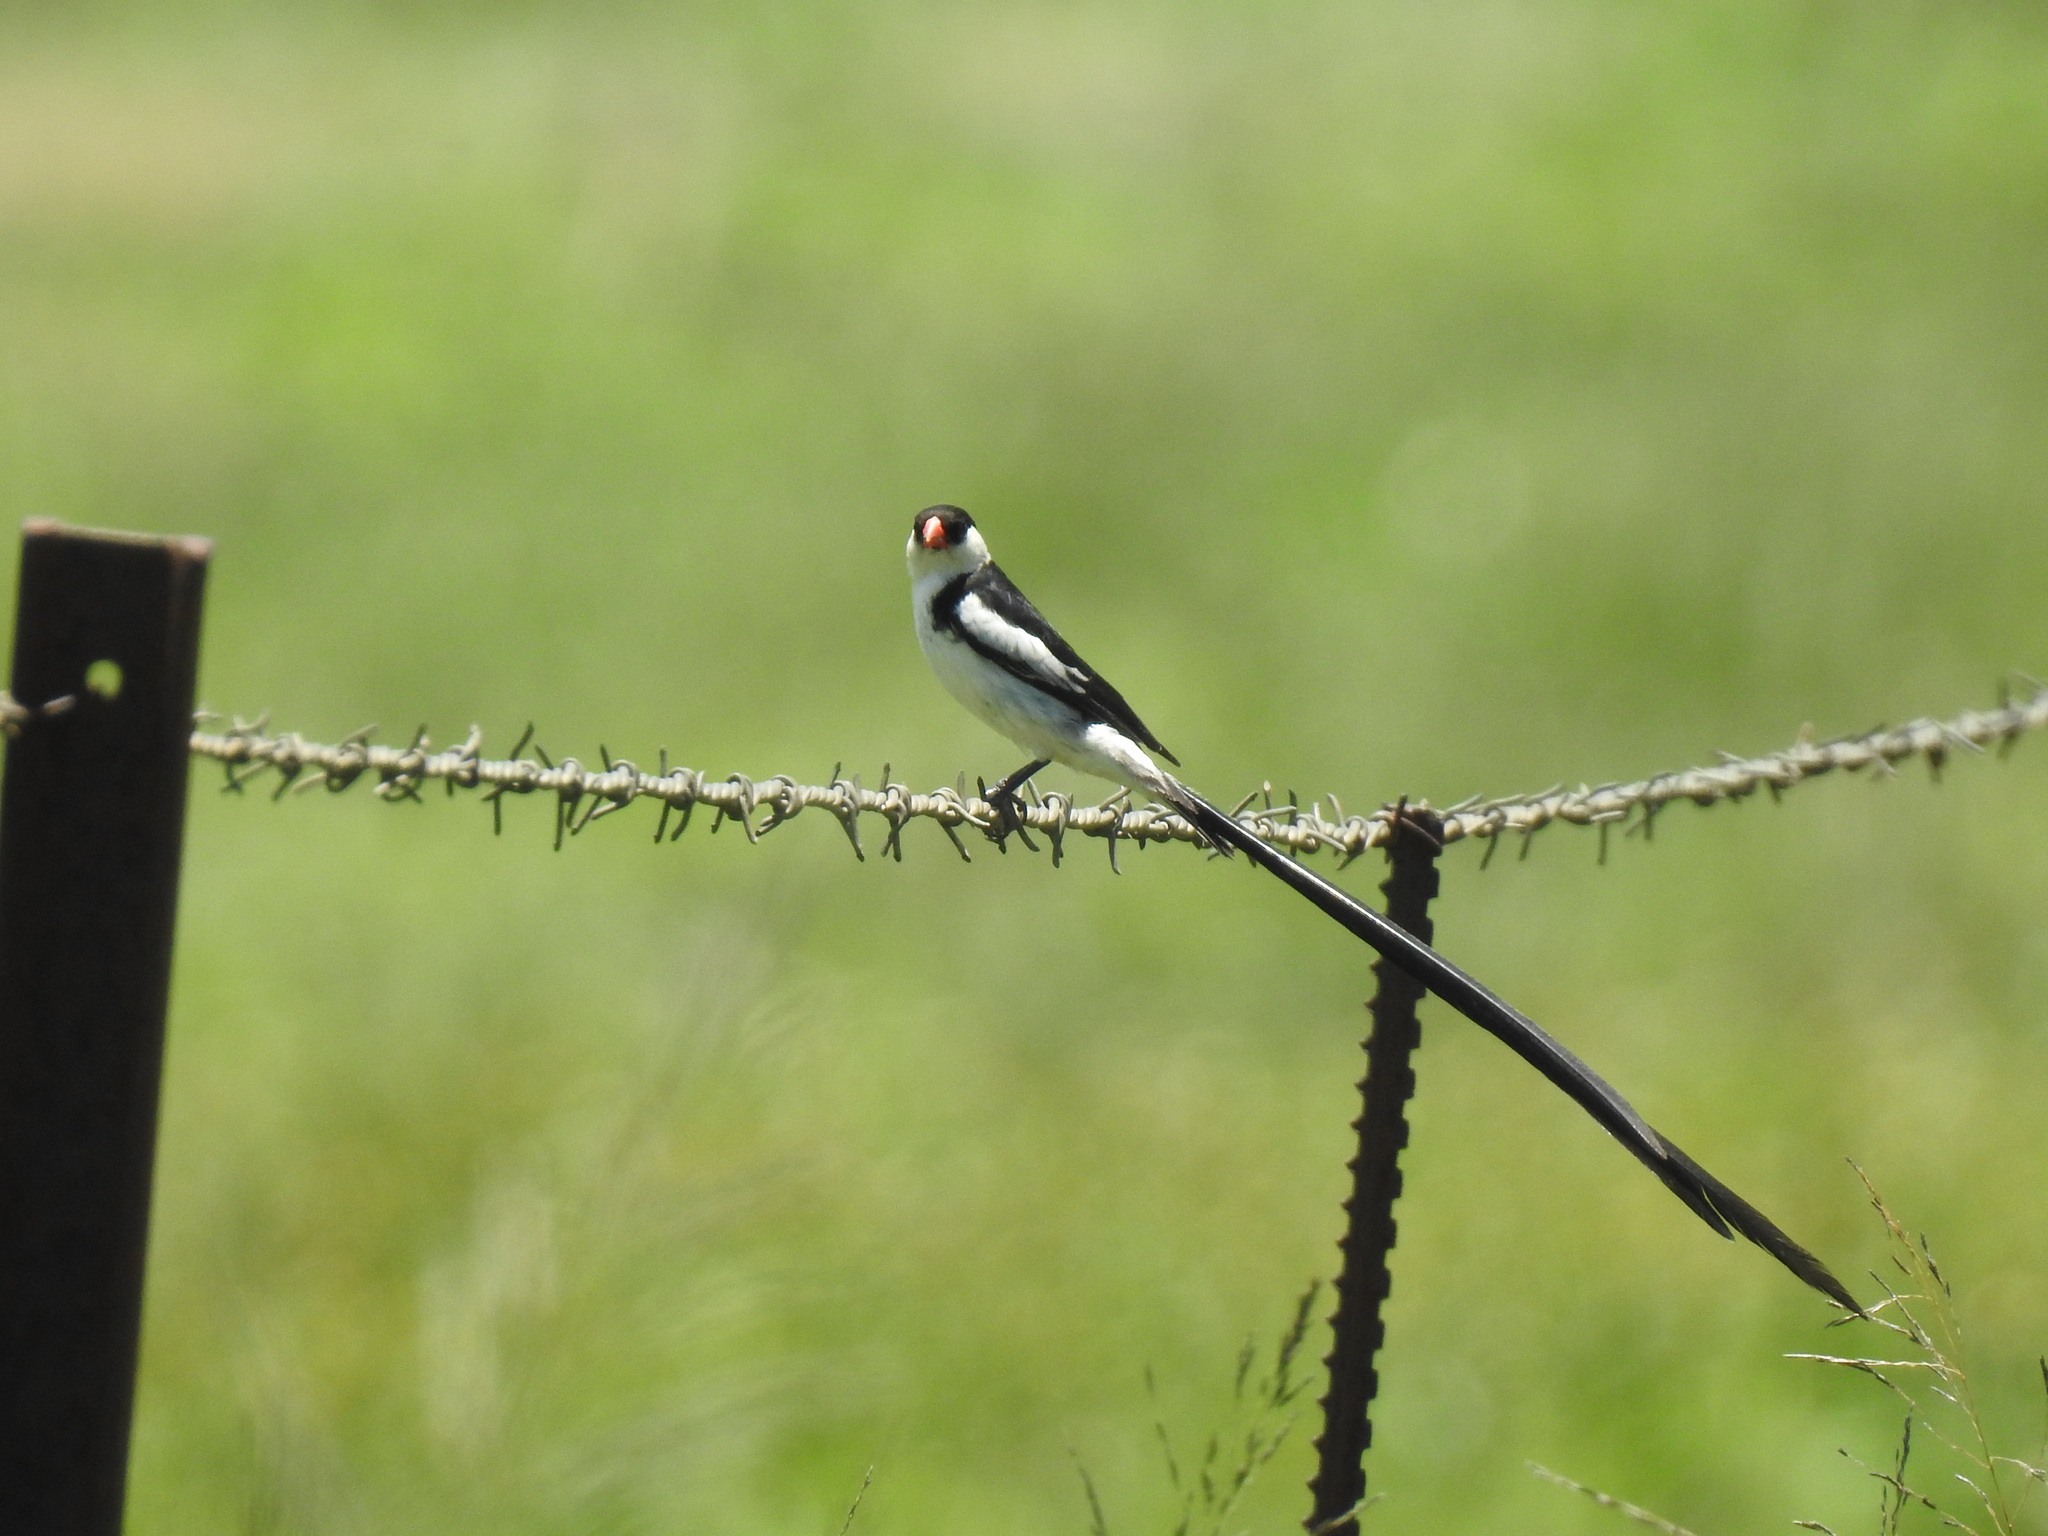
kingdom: Animalia
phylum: Chordata
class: Aves
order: Passeriformes
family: Viduidae
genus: Vidua
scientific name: Vidua macroura
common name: Pin-tailed whydah
